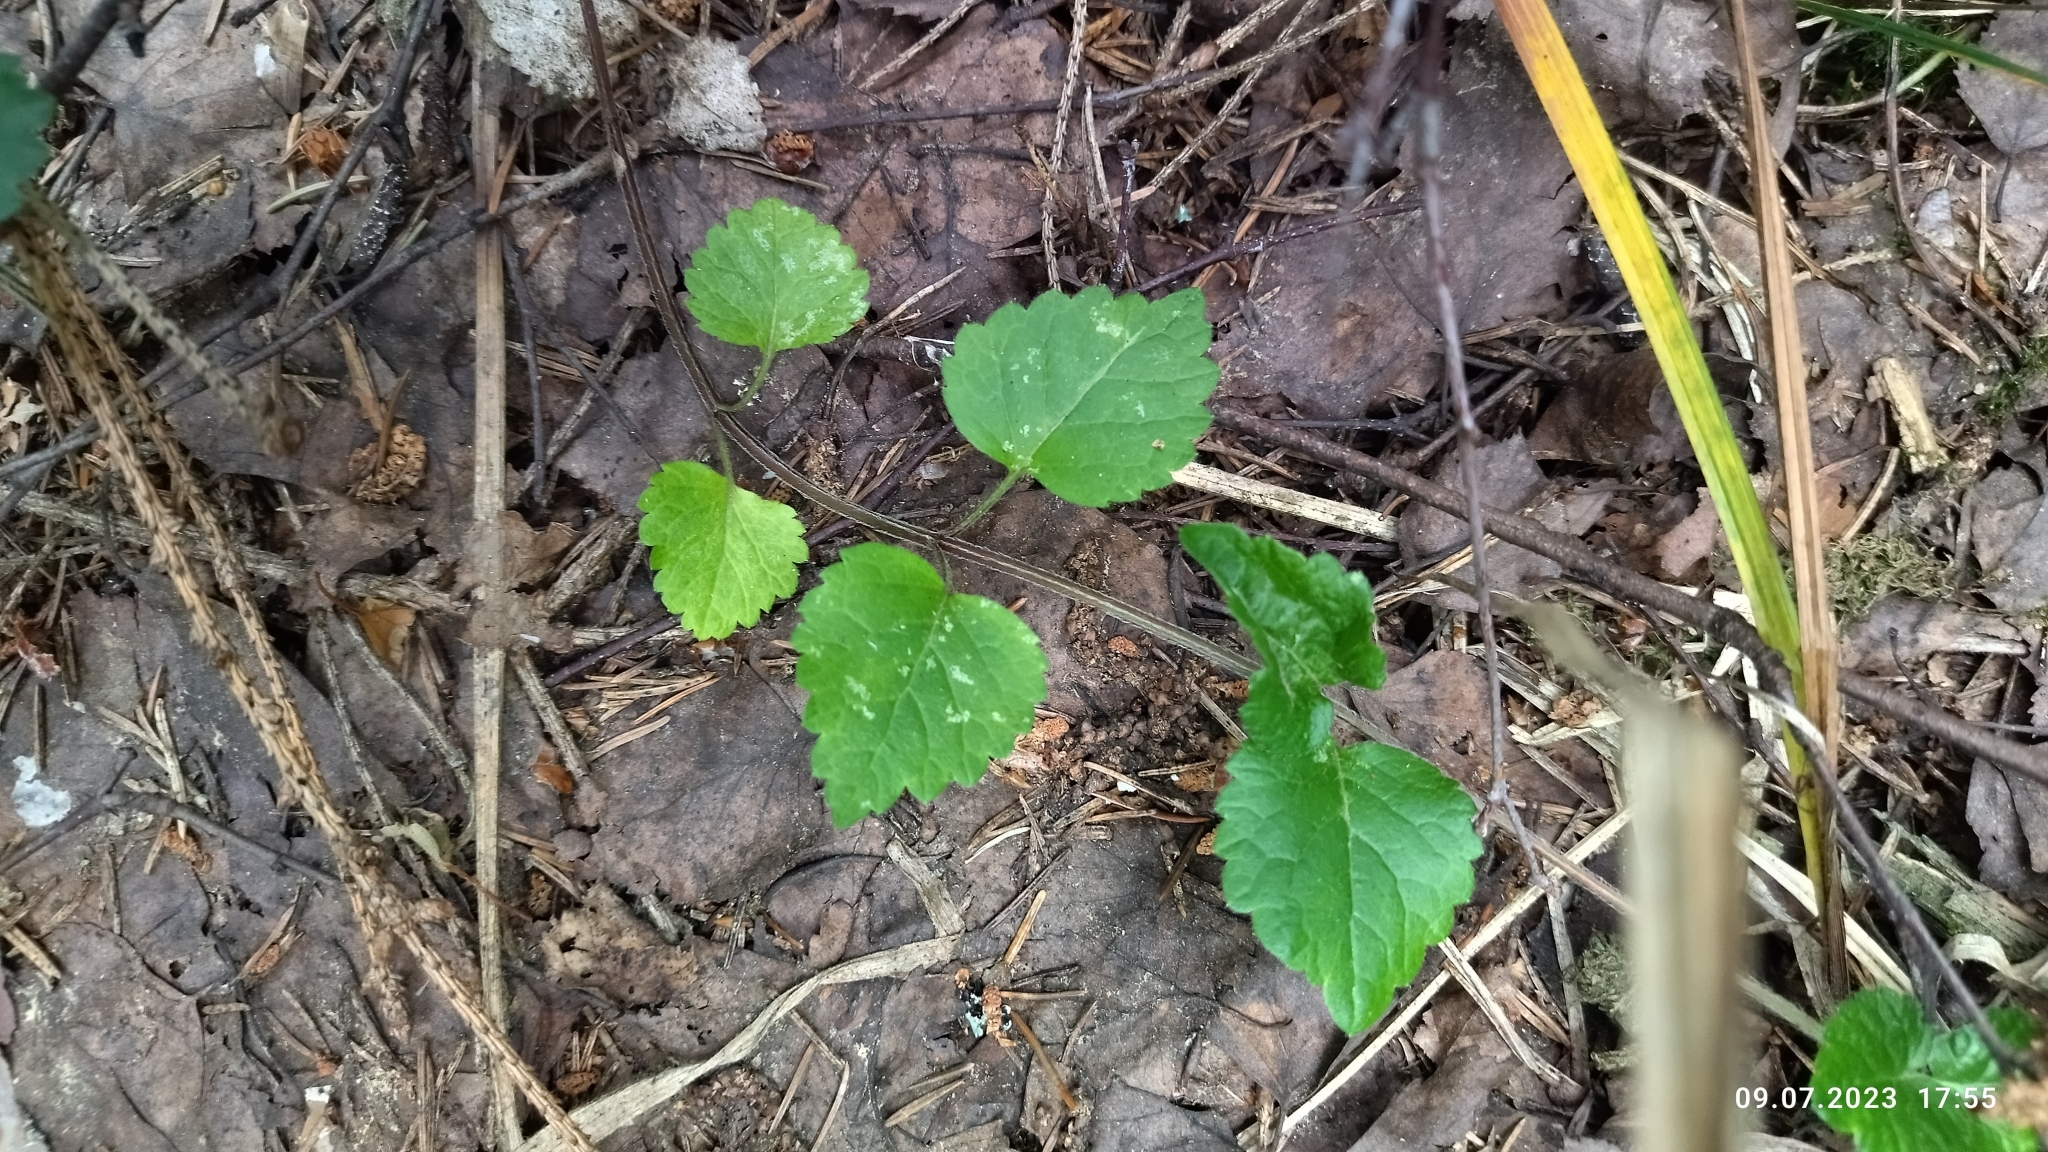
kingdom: Plantae
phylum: Tracheophyta
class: Magnoliopsida
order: Lamiales
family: Lamiaceae
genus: Lamium
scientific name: Lamium galeobdolon
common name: Yellow archangel
